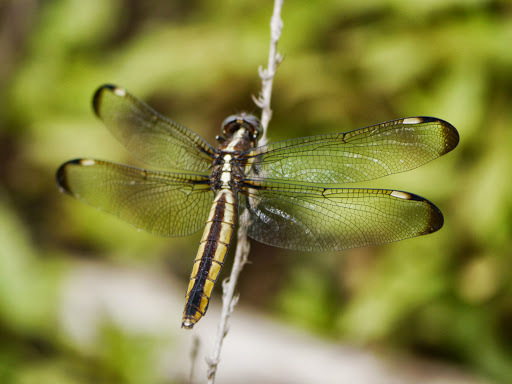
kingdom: Animalia
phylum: Arthropoda
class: Insecta
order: Odonata
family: Libellulidae
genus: Libellula
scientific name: Libellula cyanea
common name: Spangled skimmer
